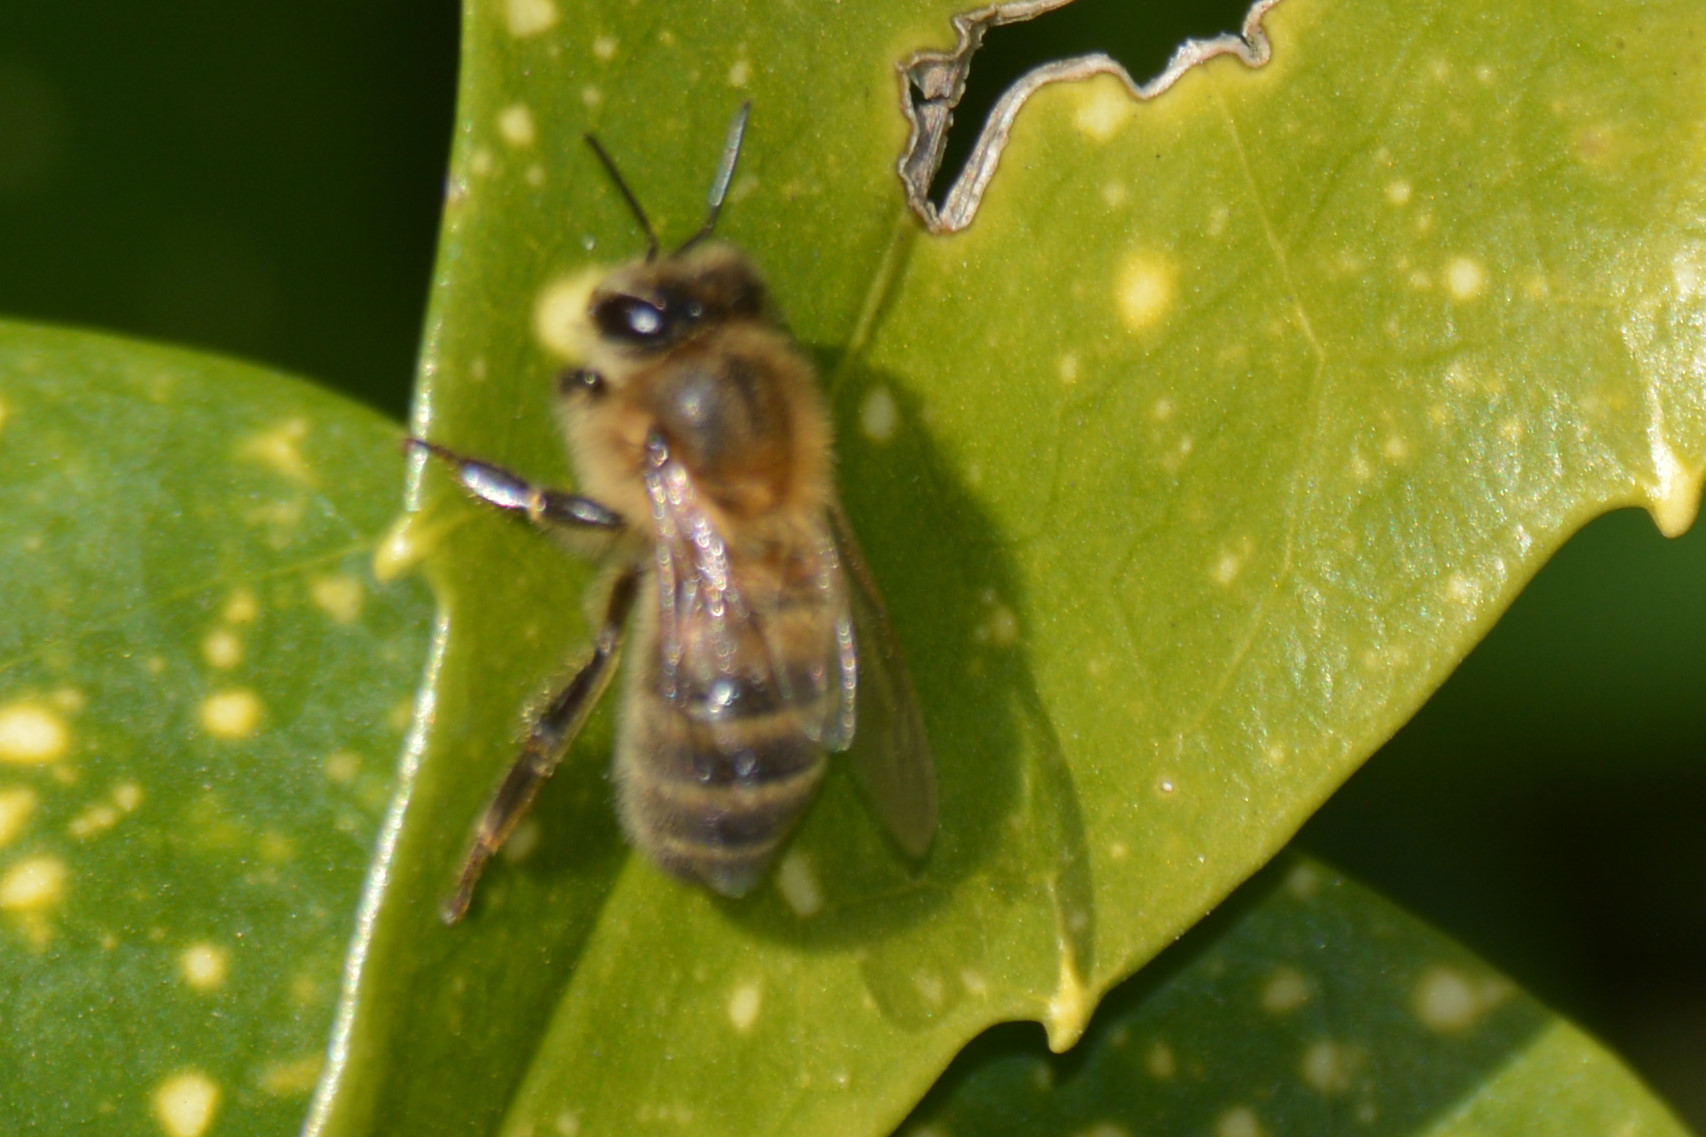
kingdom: Animalia
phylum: Arthropoda
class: Insecta
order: Hymenoptera
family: Apidae
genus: Apis
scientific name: Apis mellifera
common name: Honey bee
